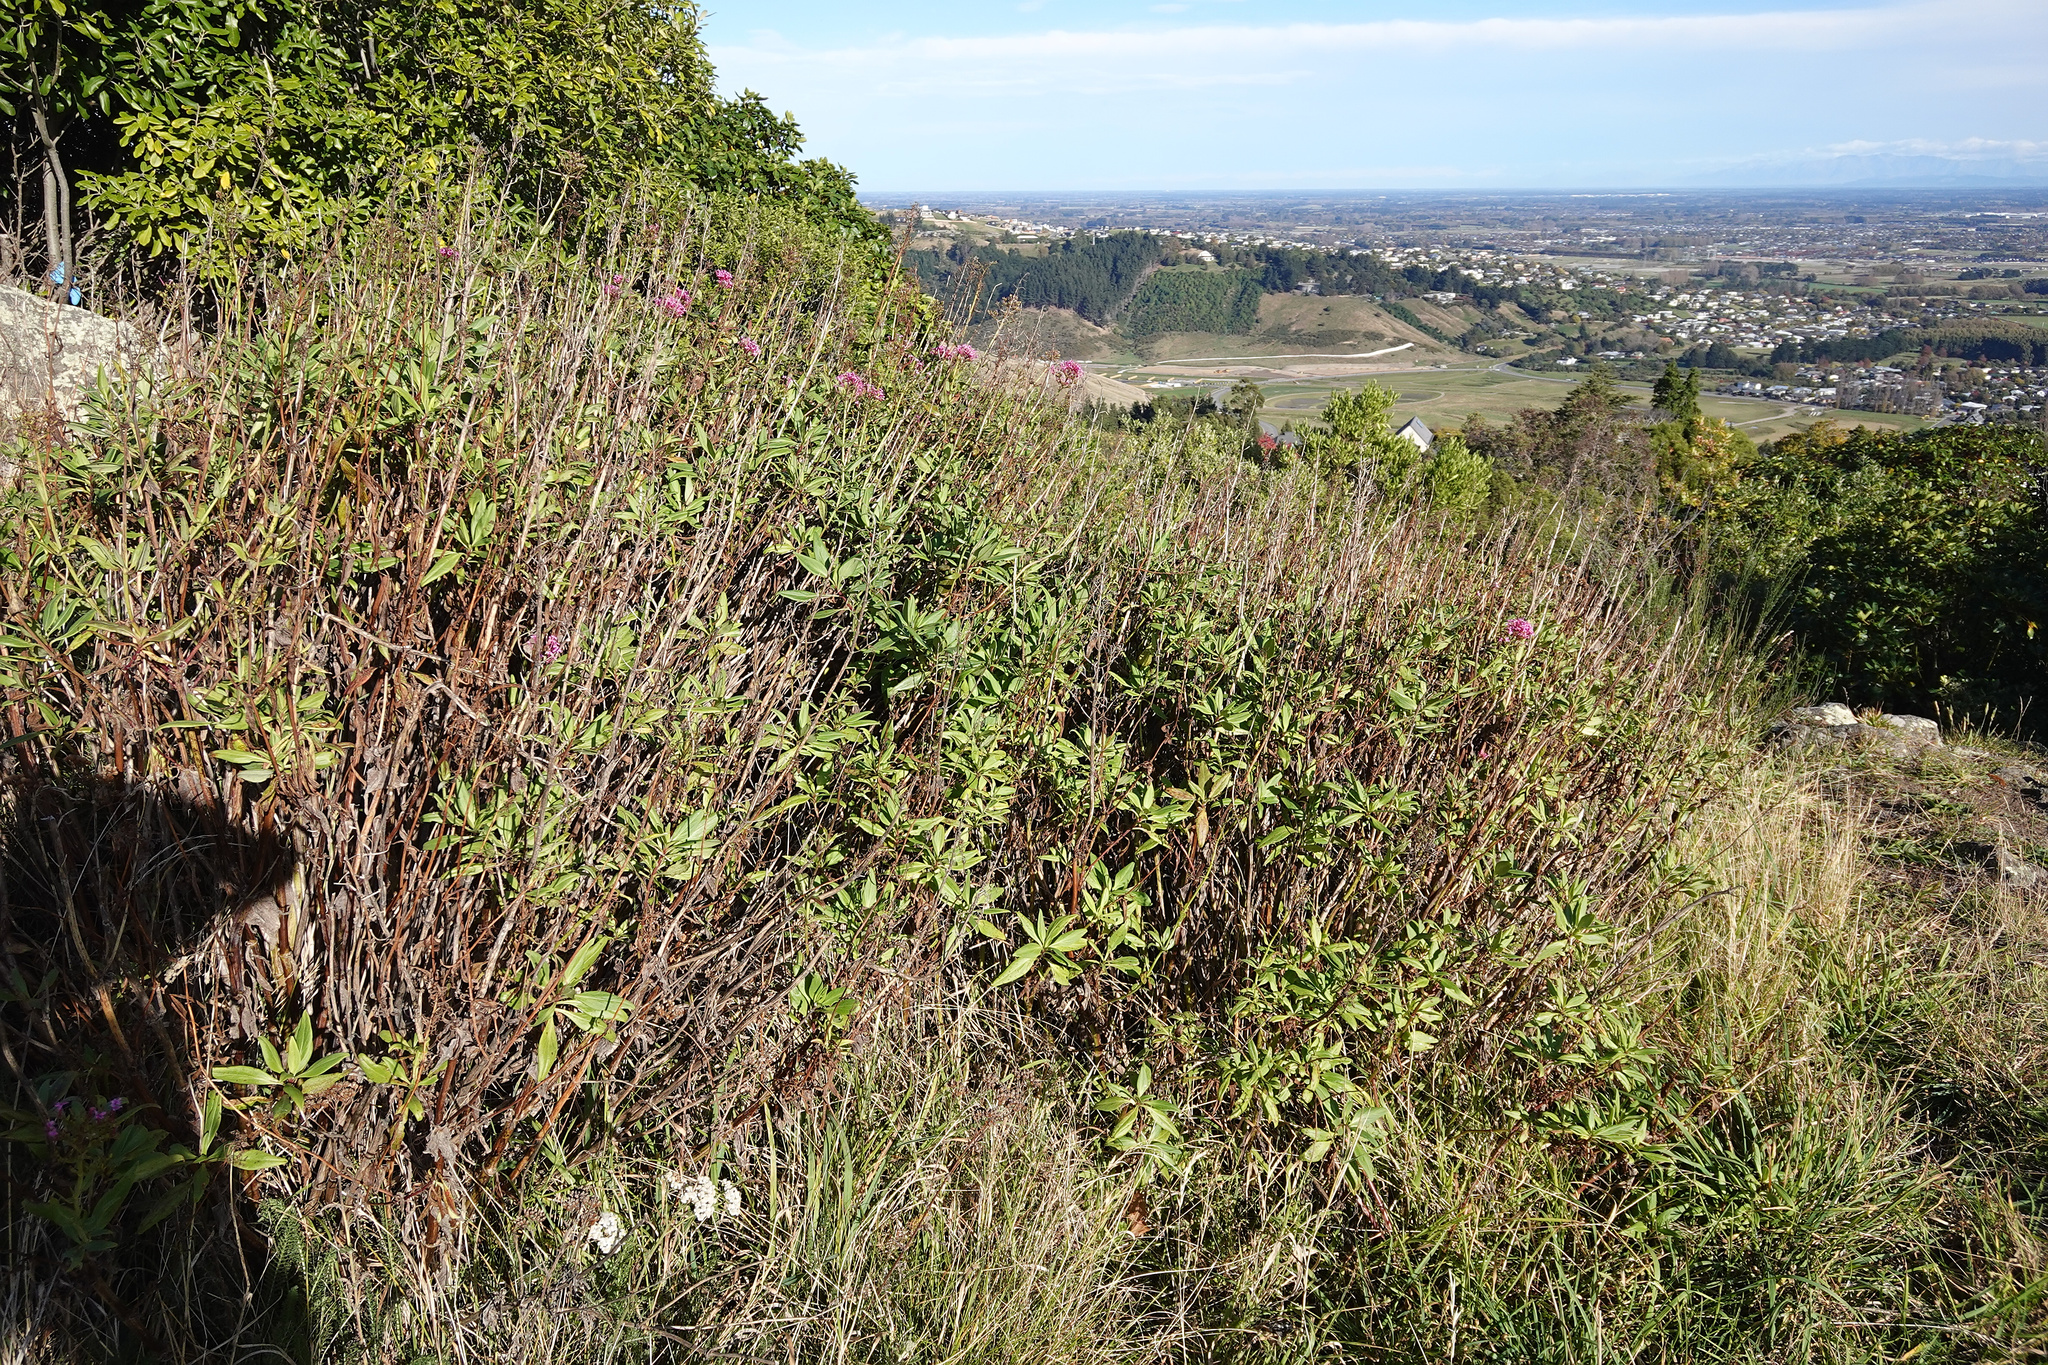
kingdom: Plantae
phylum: Tracheophyta
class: Magnoliopsida
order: Dipsacales
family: Caprifoliaceae
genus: Centranthus
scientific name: Centranthus ruber
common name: Red valerian
